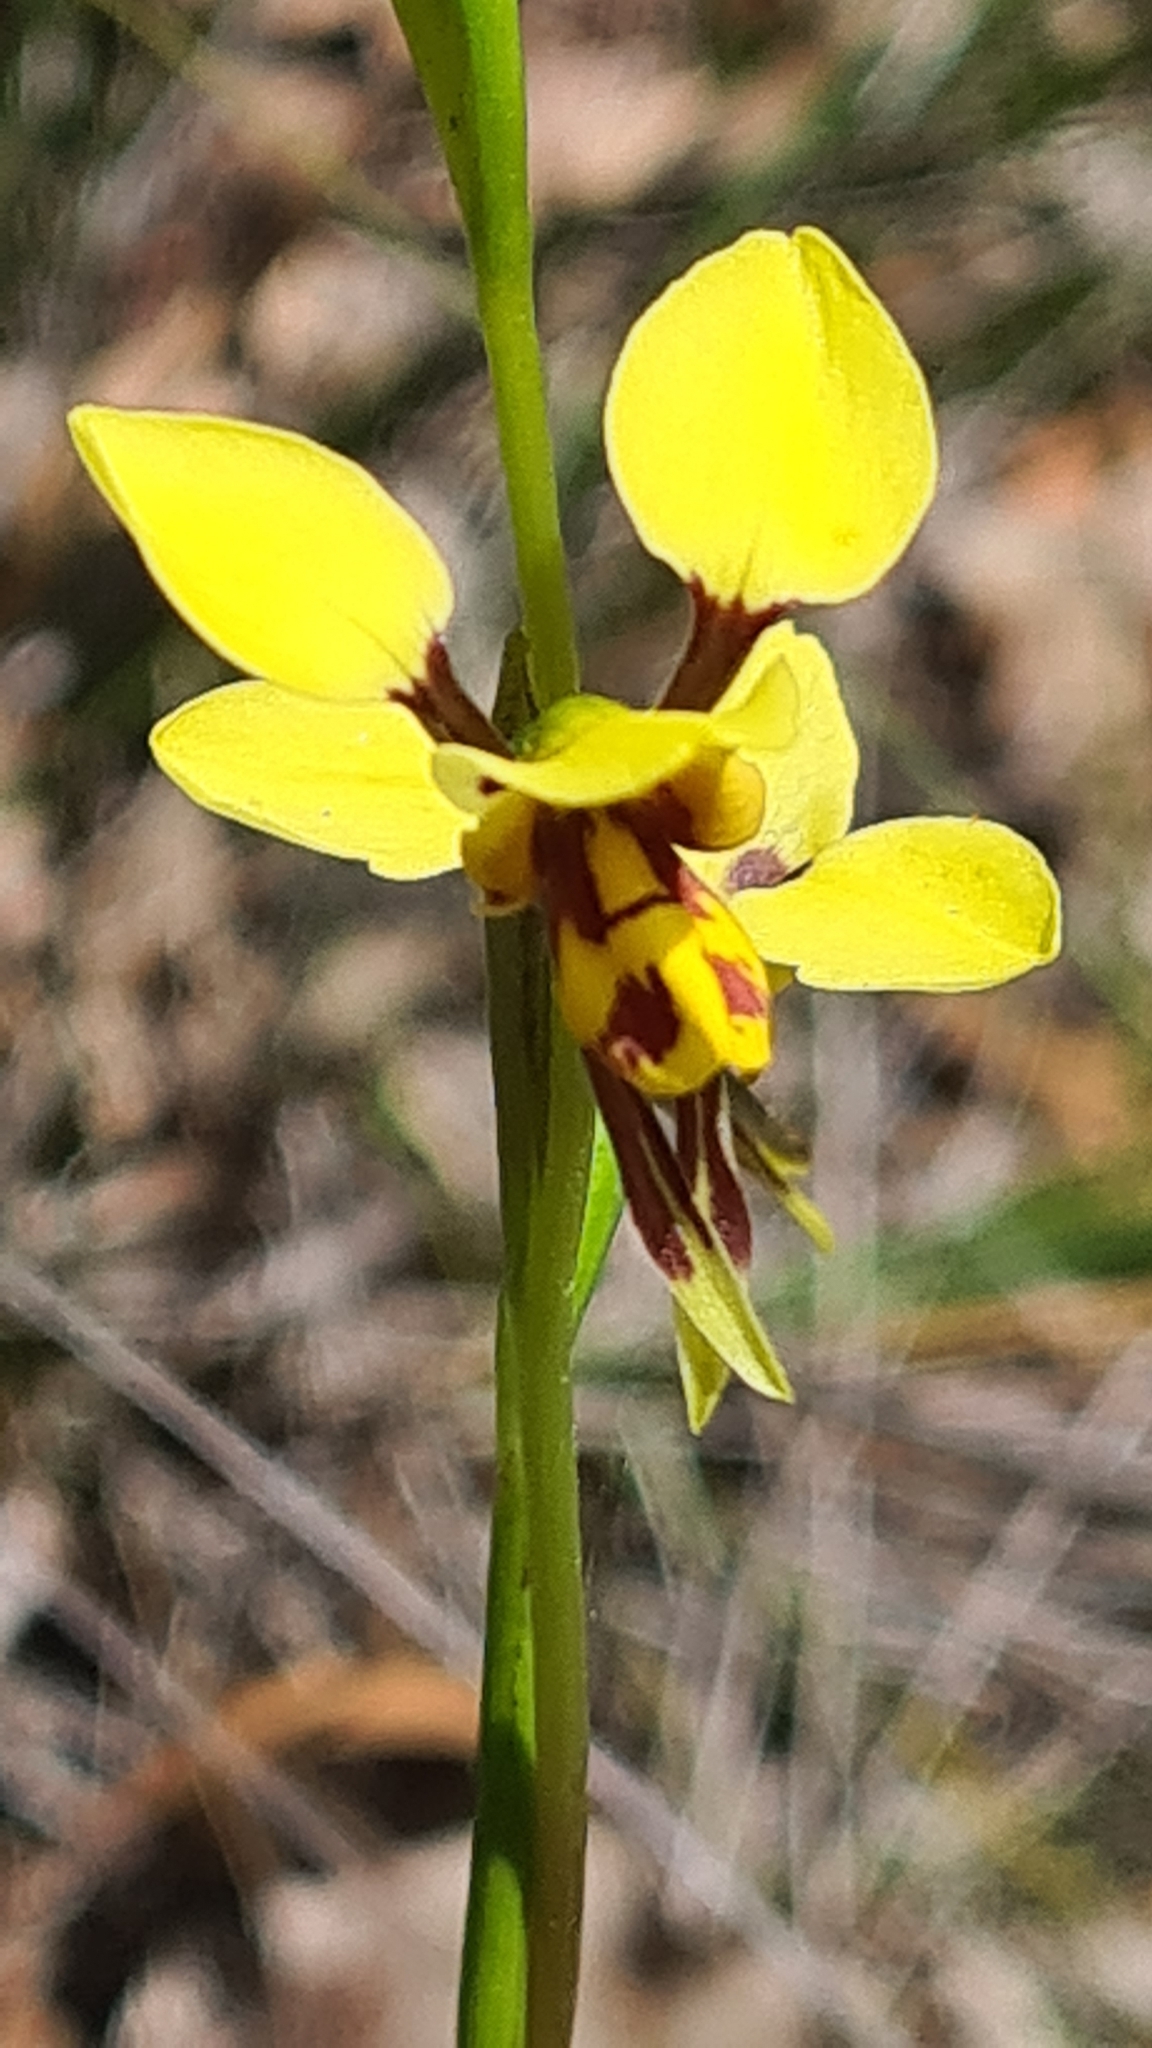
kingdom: Plantae
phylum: Tracheophyta
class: Liliopsida
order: Asparagales
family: Orchidaceae
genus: Diuris
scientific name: Diuris sulphurea
